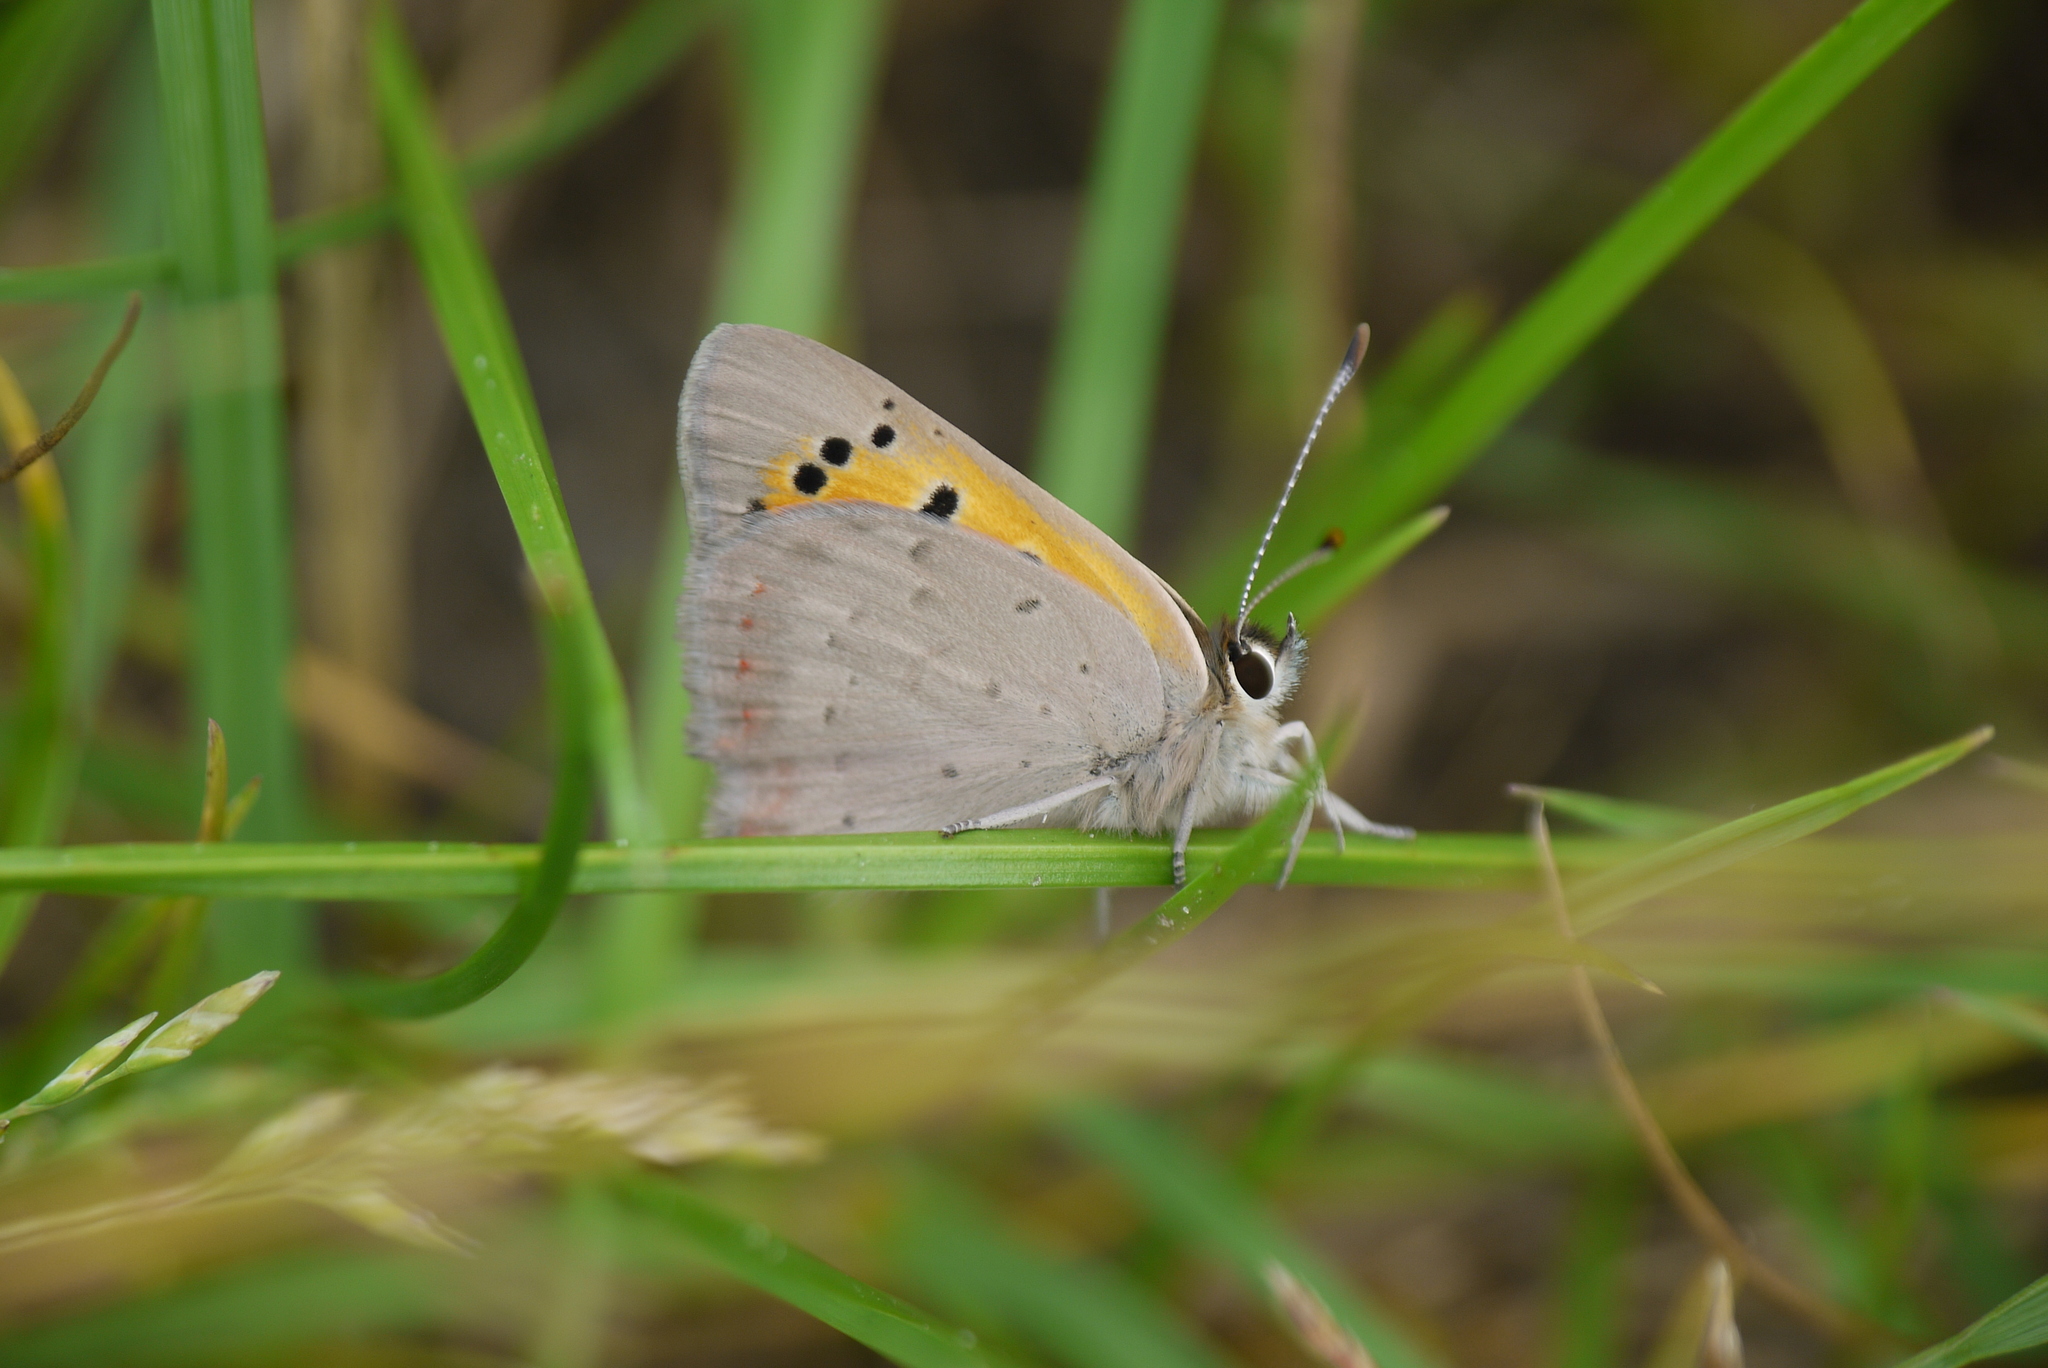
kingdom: Animalia
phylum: Arthropoda
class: Insecta
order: Lepidoptera
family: Lycaenidae
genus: Lycaena
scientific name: Lycaena phlaeas
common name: Small copper
